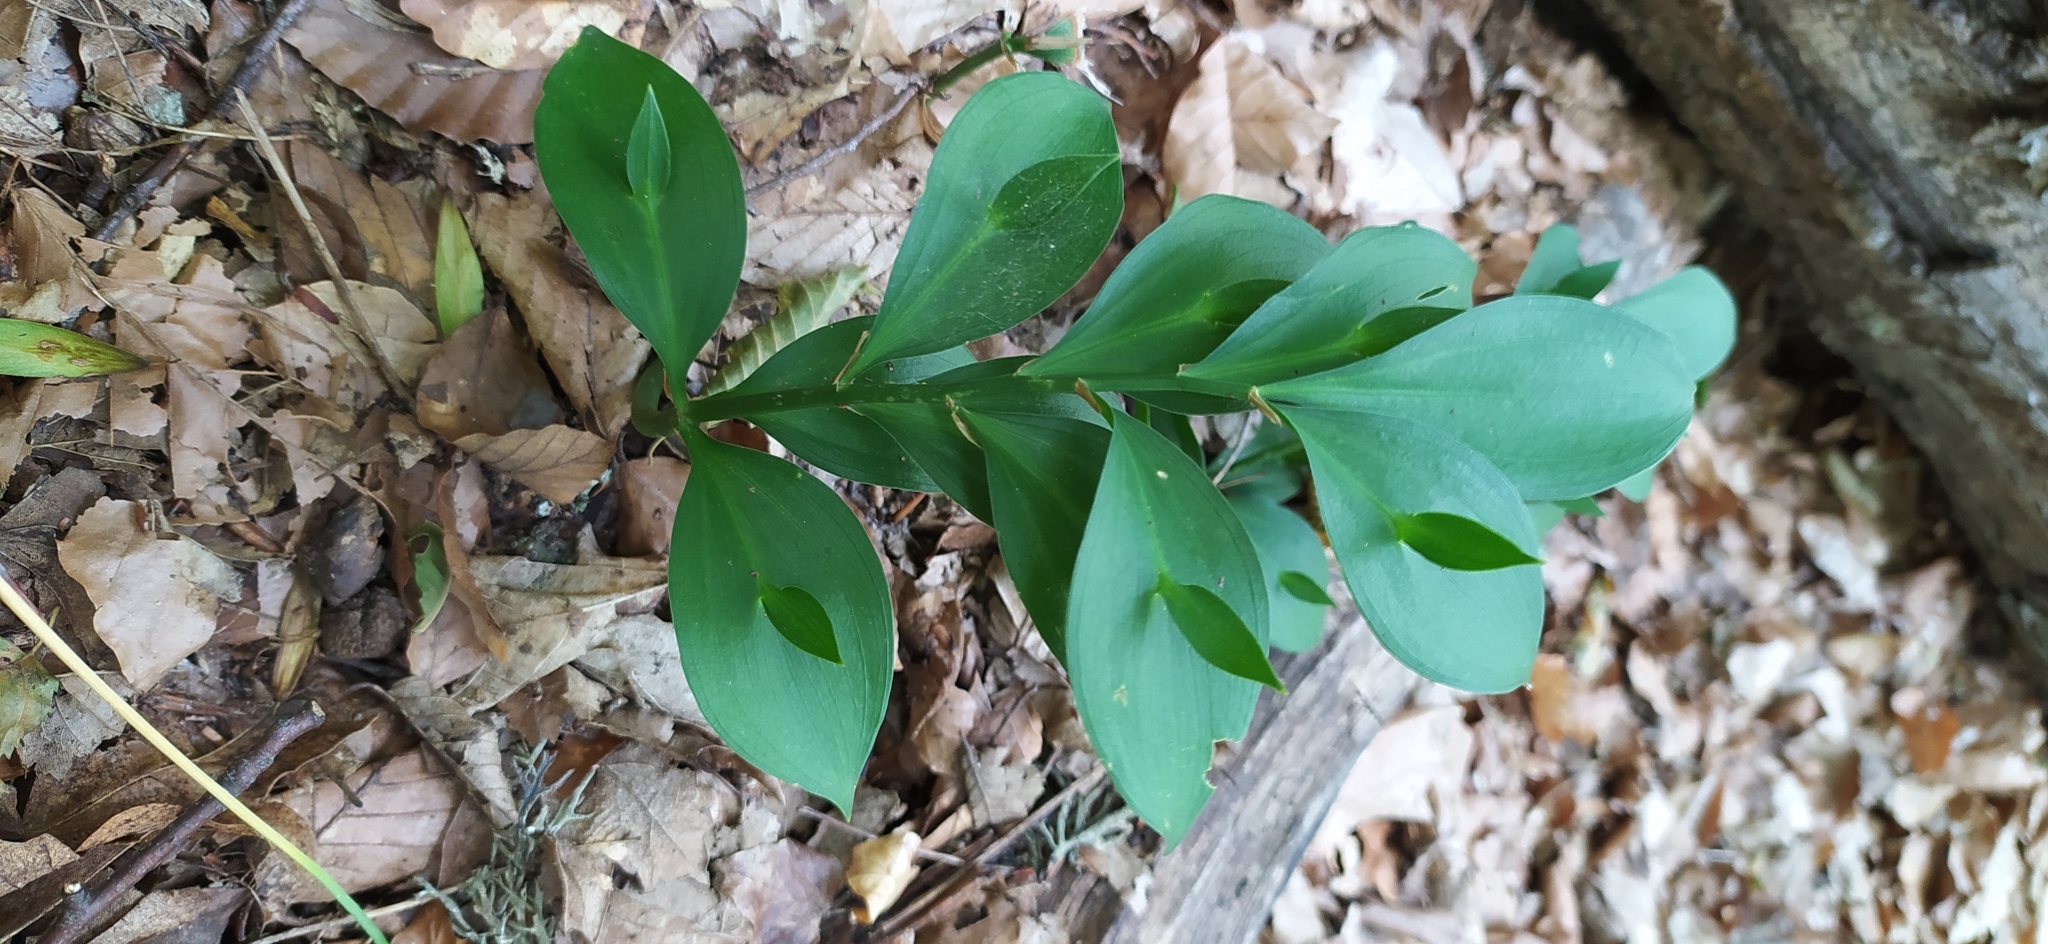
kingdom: Plantae
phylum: Tracheophyta
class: Liliopsida
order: Asparagales
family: Asparagaceae
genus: Ruscus
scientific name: Ruscus hypoglossum
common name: Spineless butcher's-broom
